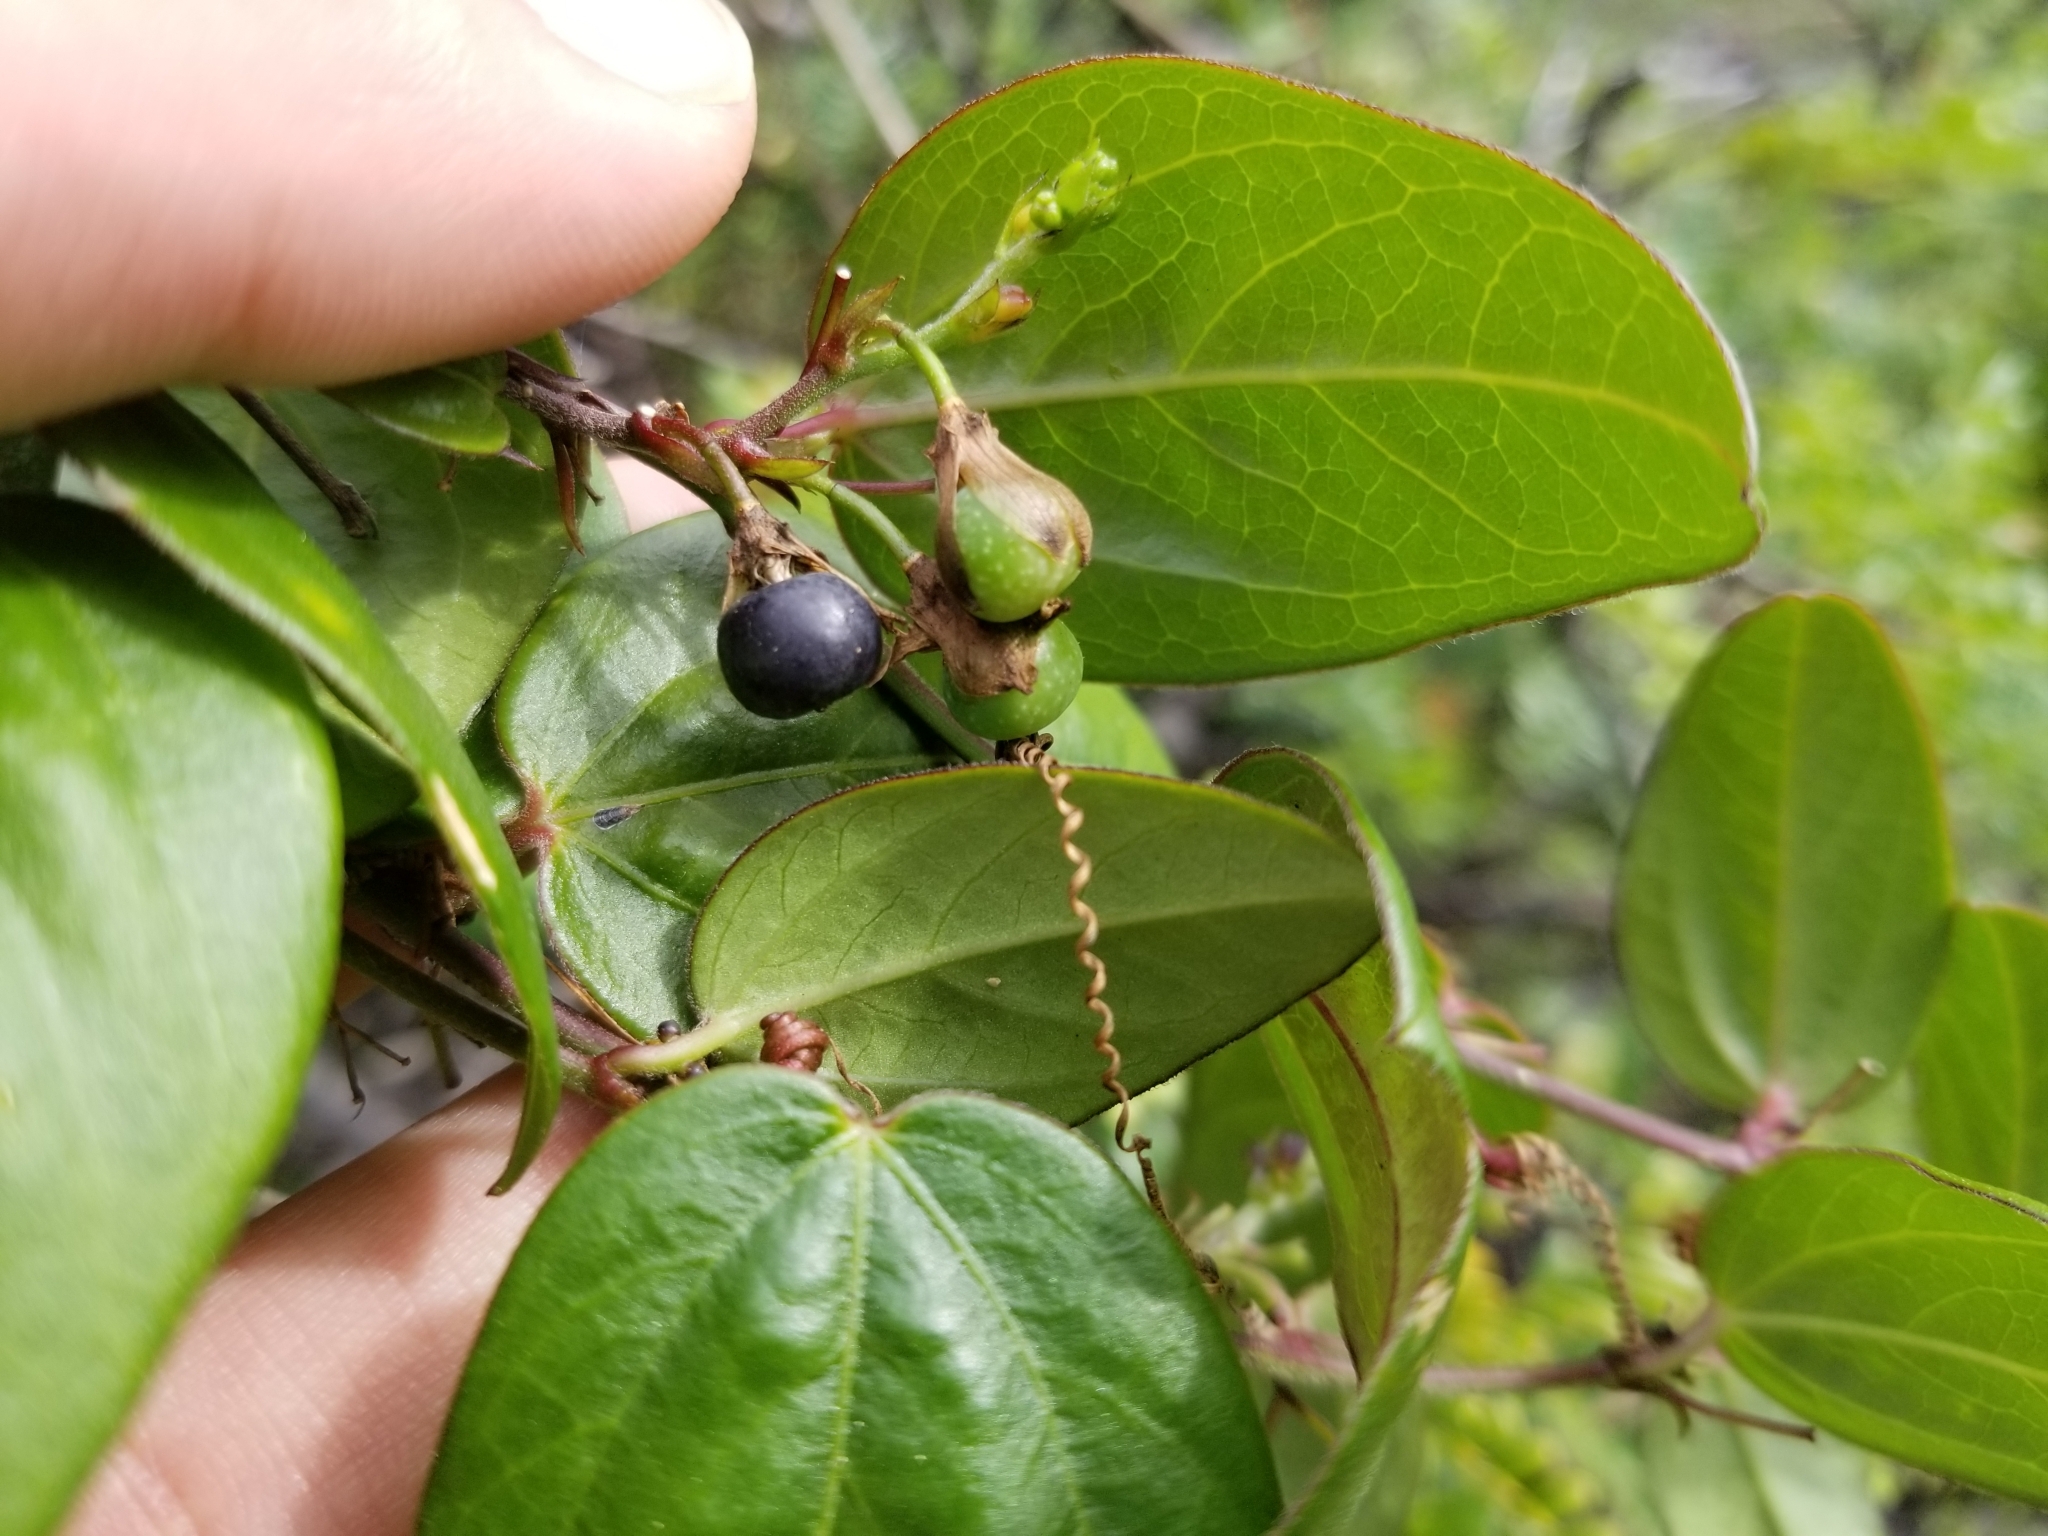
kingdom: Plantae
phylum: Tracheophyta
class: Magnoliopsida
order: Malpighiales
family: Passifloraceae
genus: Passiflora
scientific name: Passiflora pallida
